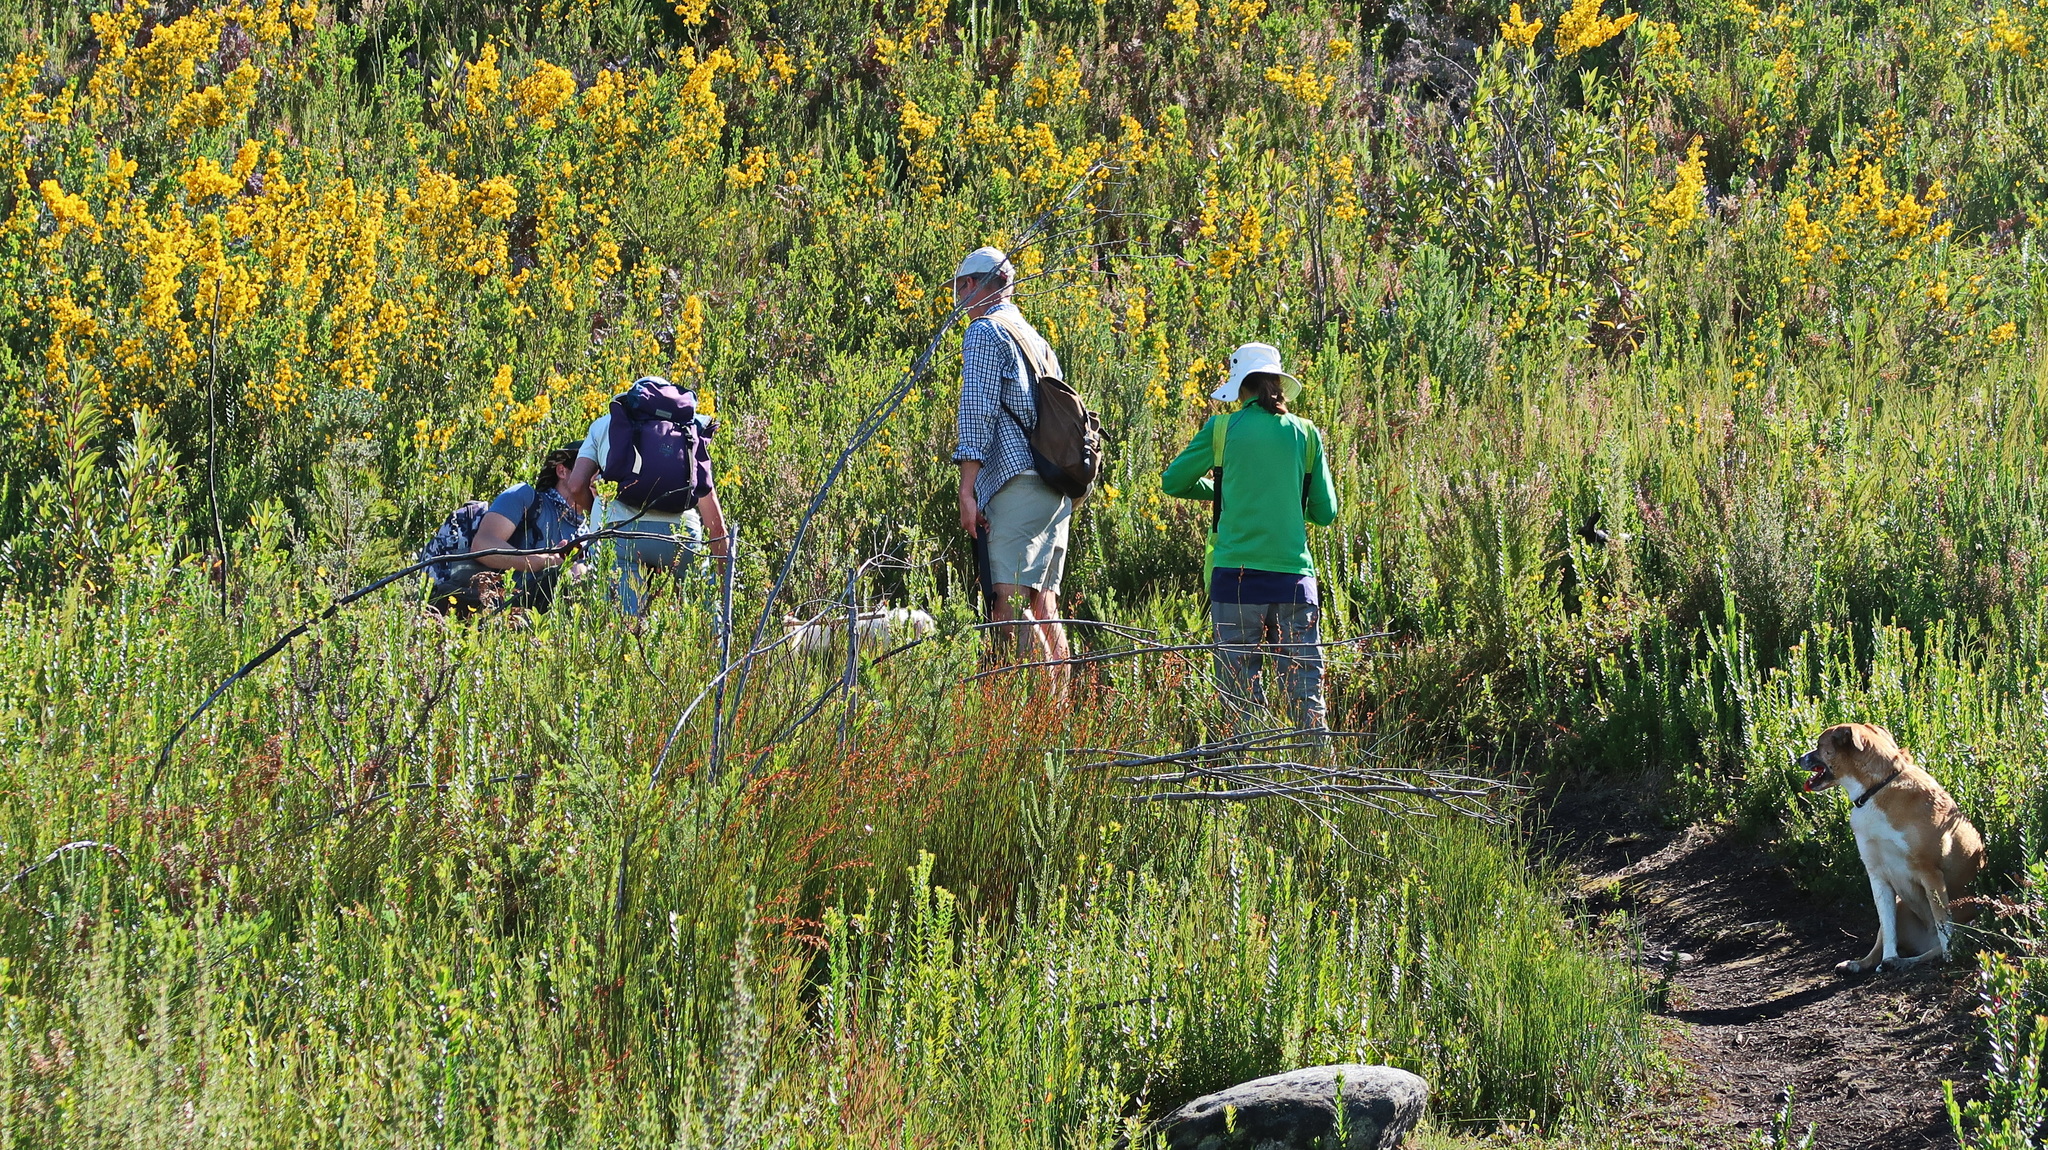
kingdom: Plantae
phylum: Tracheophyta
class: Magnoliopsida
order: Fabales
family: Fabaceae
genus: Cyclopia
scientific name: Cyclopia subternata
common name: Honeybush tea
